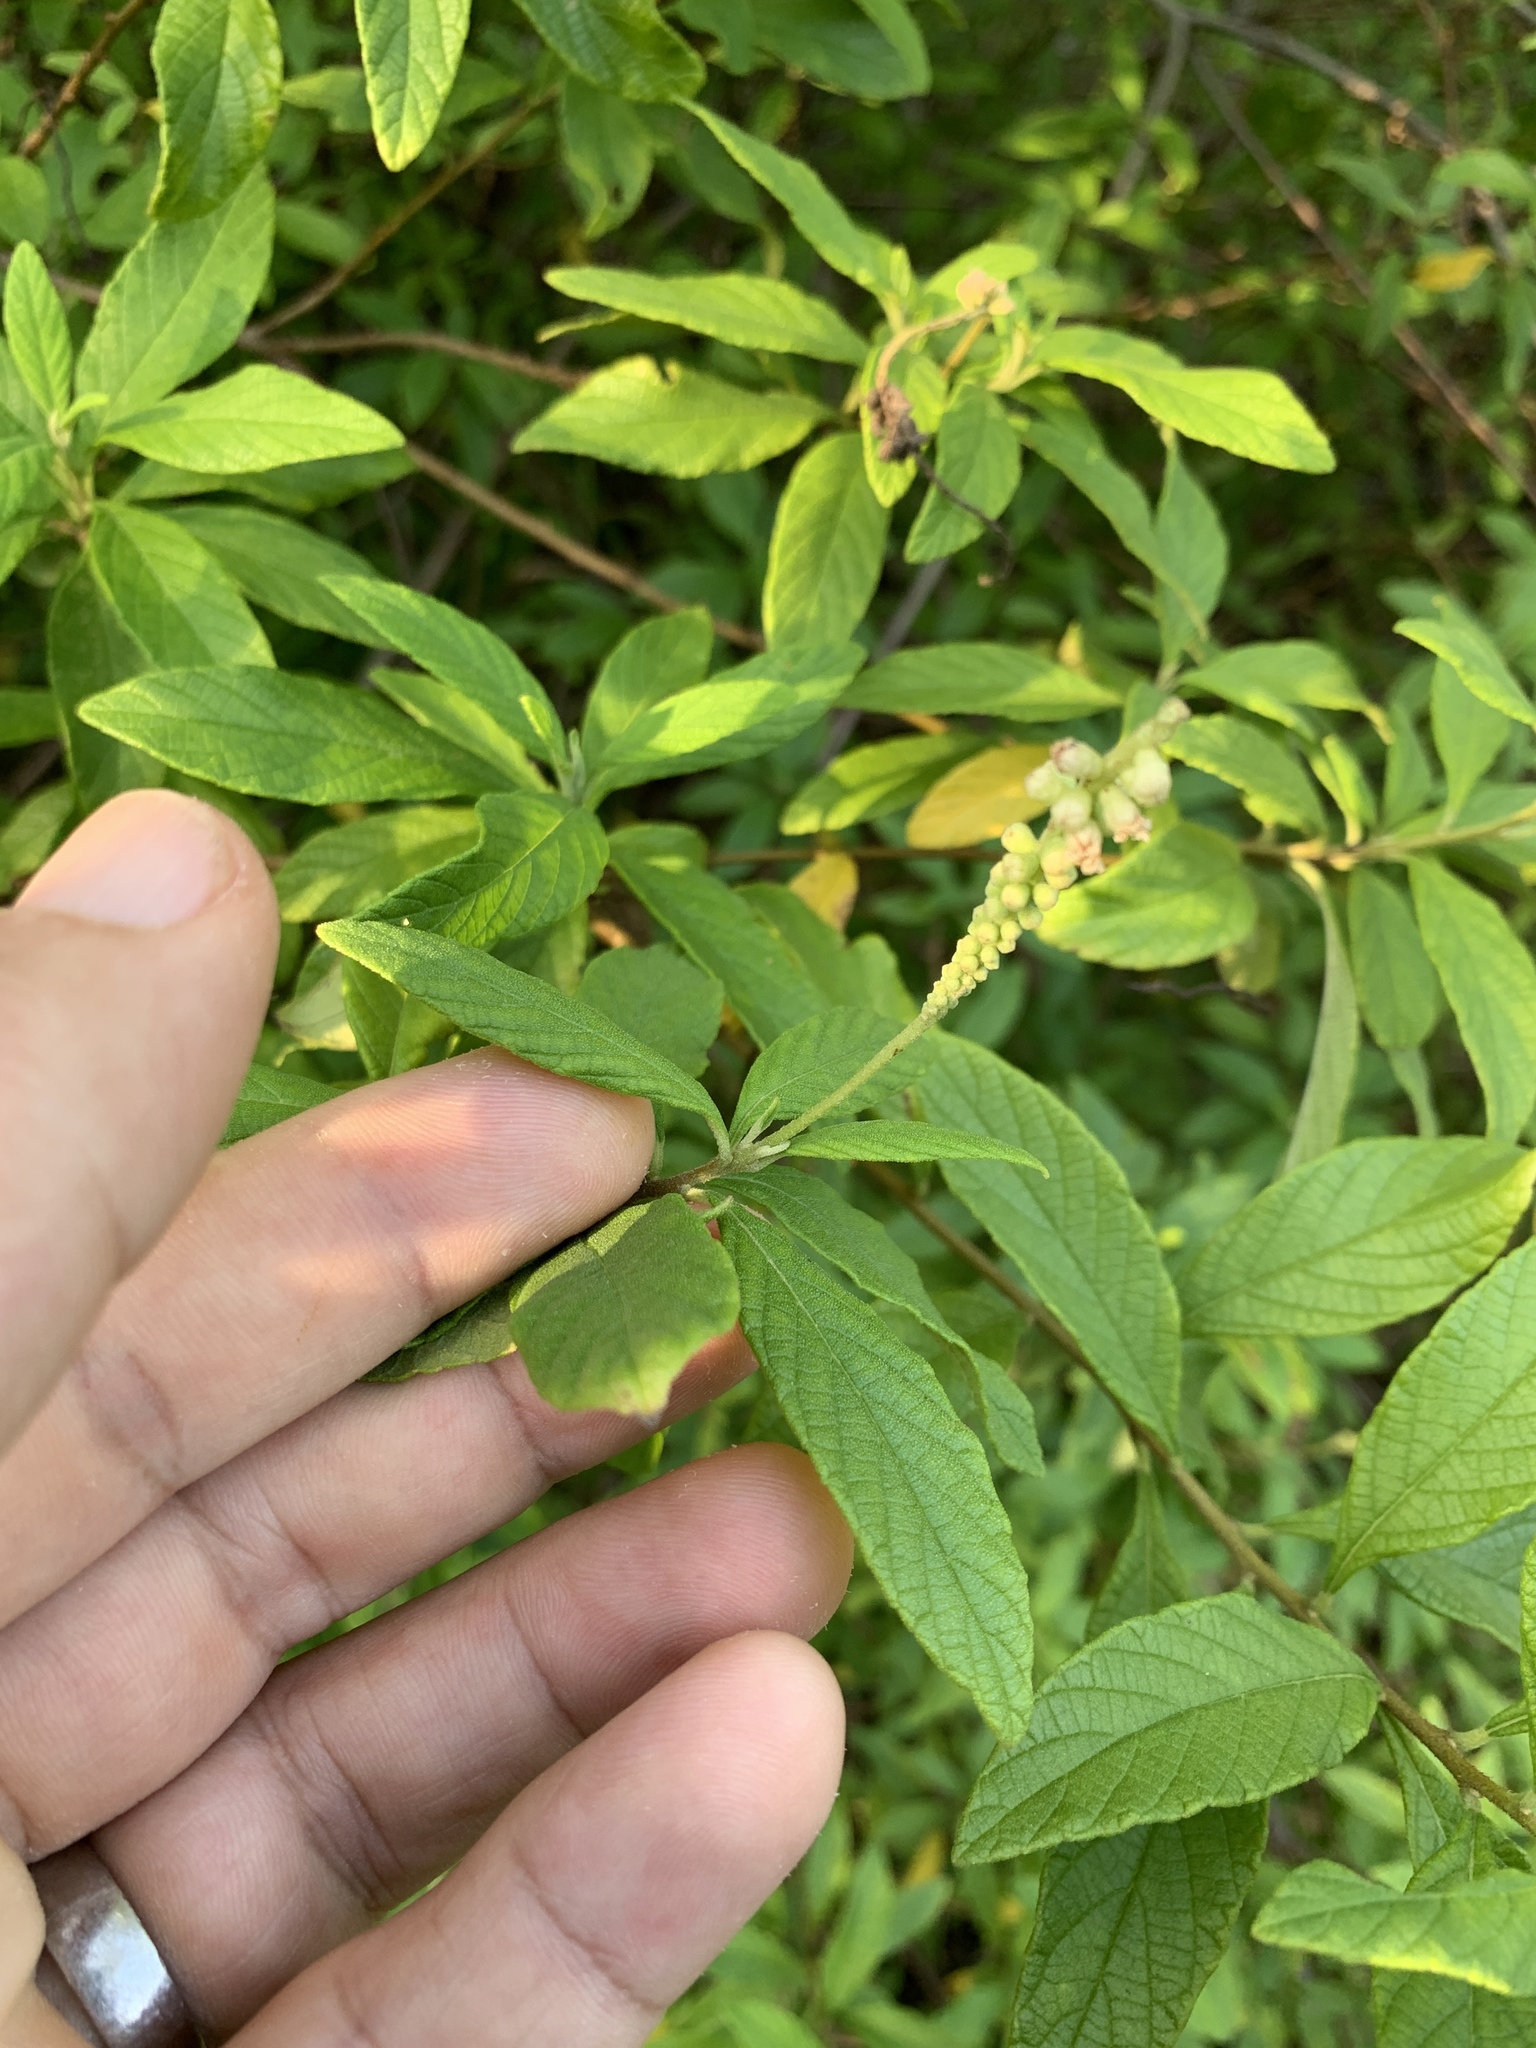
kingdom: Plantae
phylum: Tracheophyta
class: Magnoliopsida
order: Boraginales
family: Cordiaceae
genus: Varronia
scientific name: Varronia curassavica
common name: Black sage
